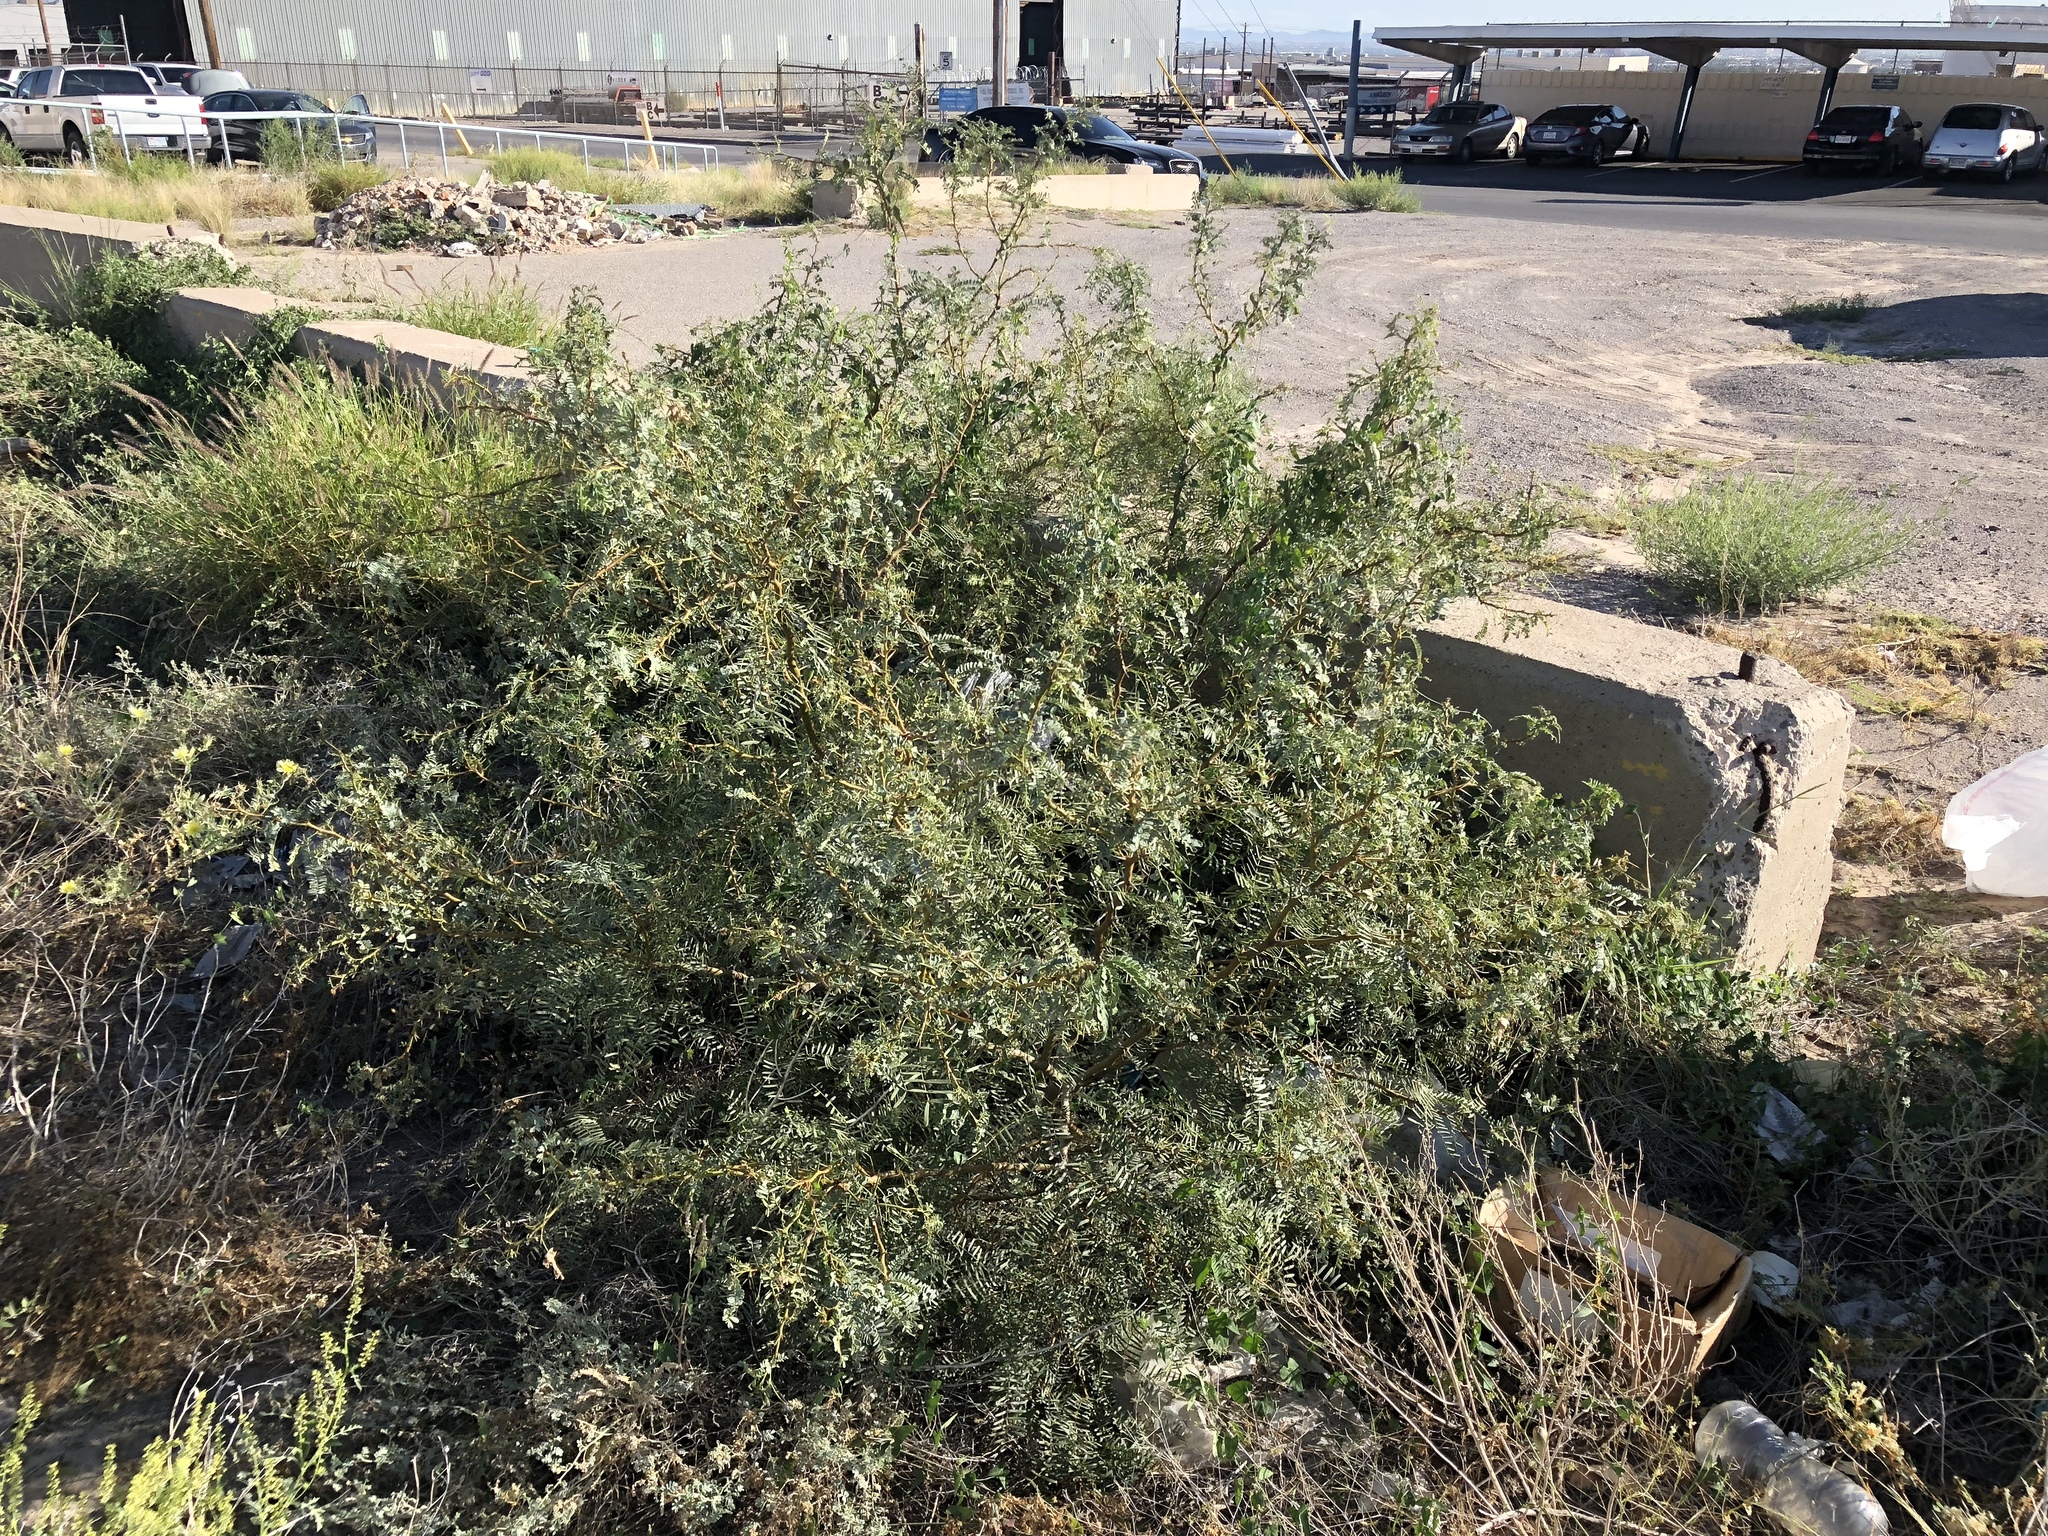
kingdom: Plantae
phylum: Tracheophyta
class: Magnoliopsida
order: Fabales
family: Fabaceae
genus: Prosopis
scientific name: Prosopis glandulosa
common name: Honey mesquite
